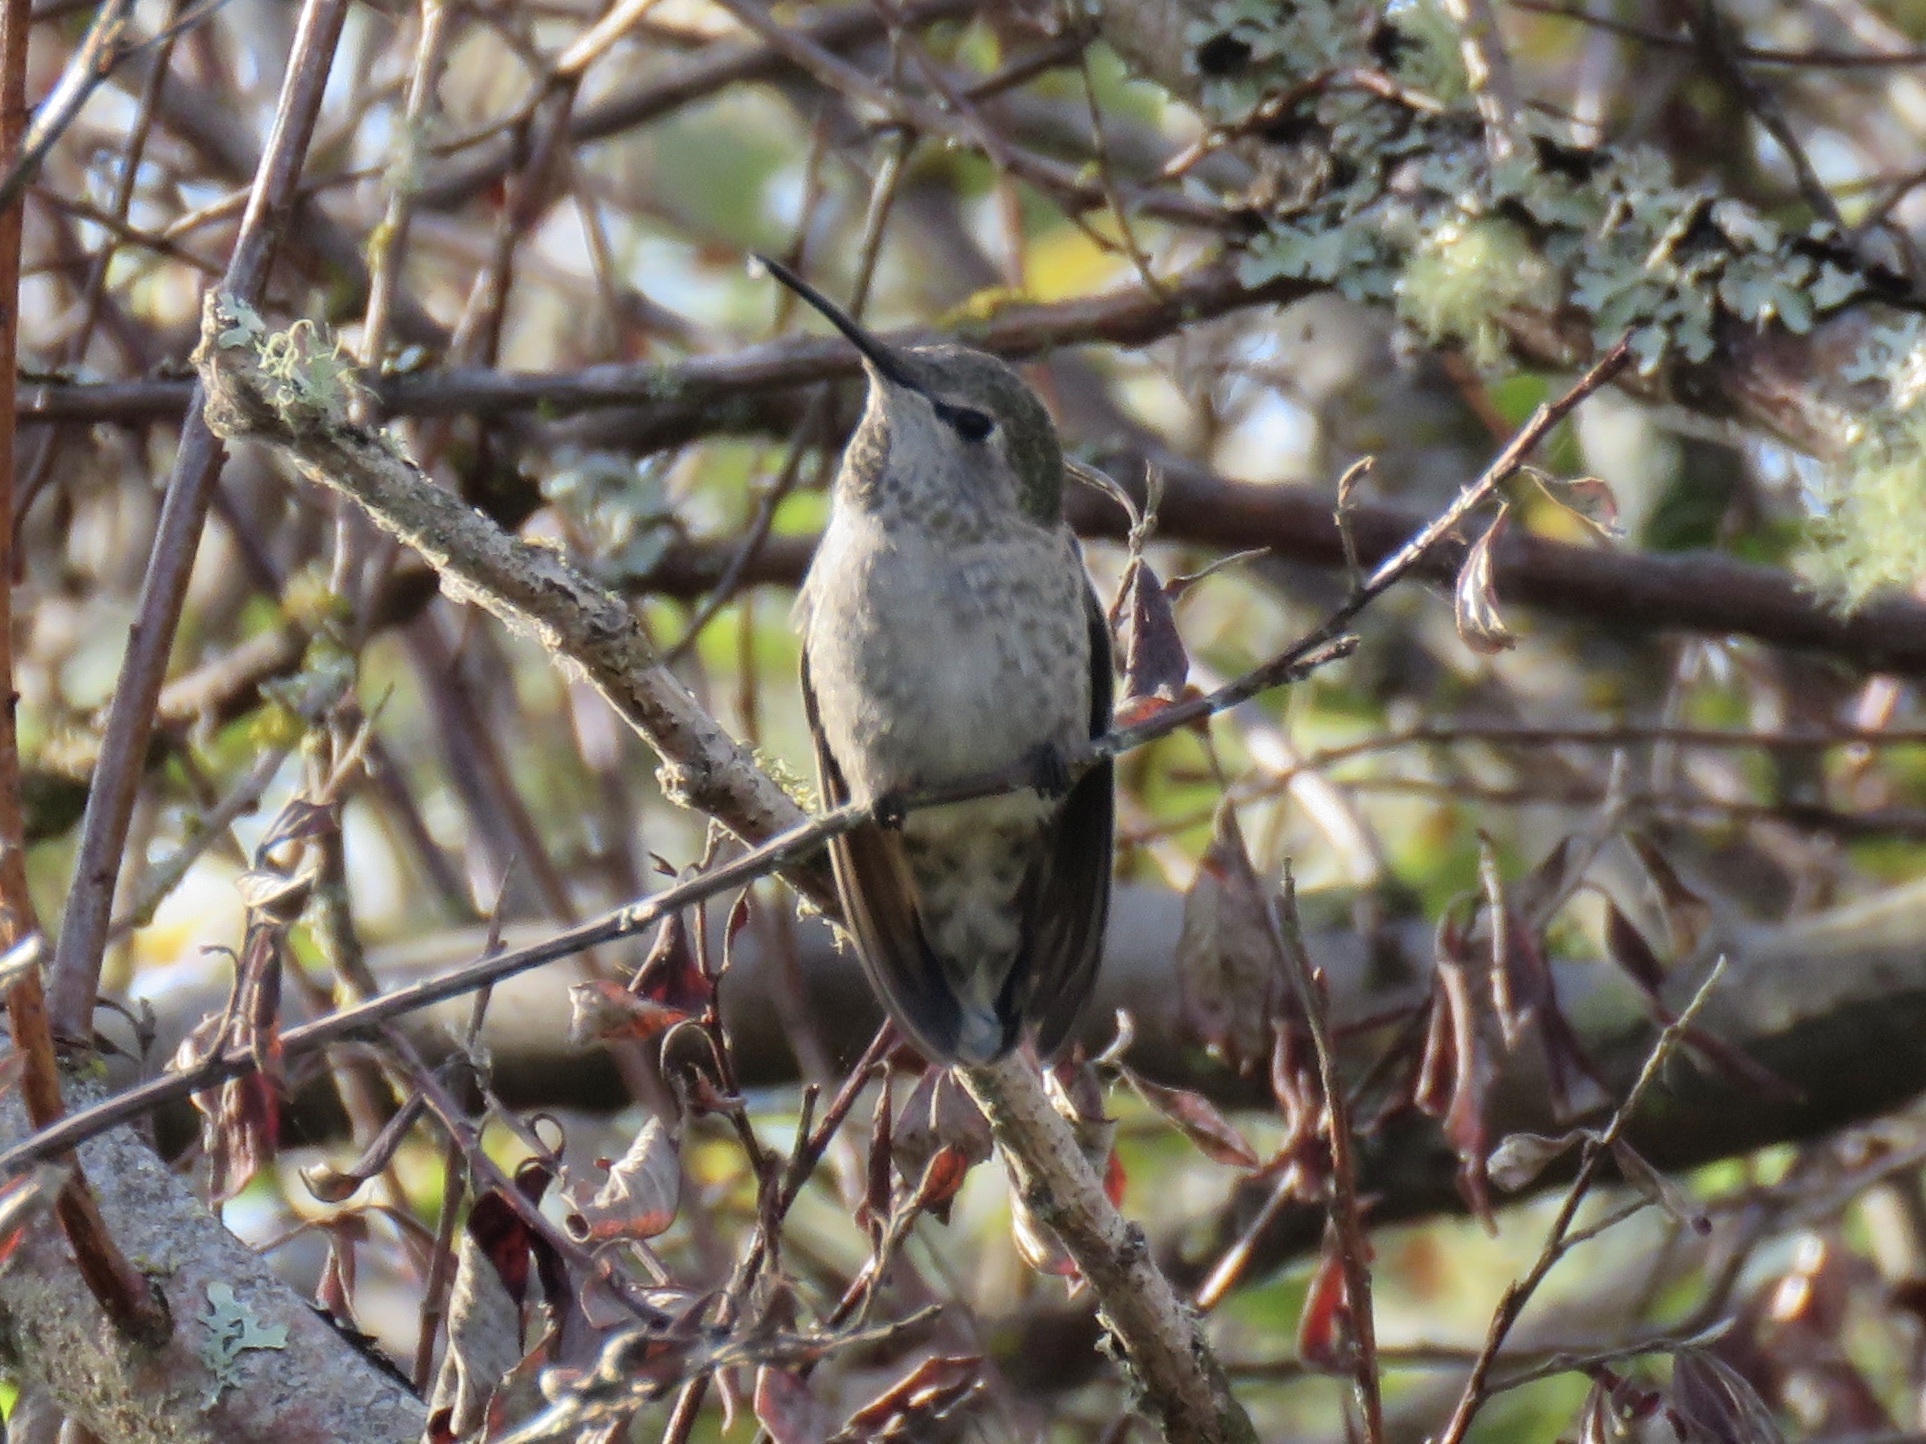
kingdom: Animalia
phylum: Chordata
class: Aves
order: Apodiformes
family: Trochilidae
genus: Calypte
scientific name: Calypte anna
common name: Anna's hummingbird
